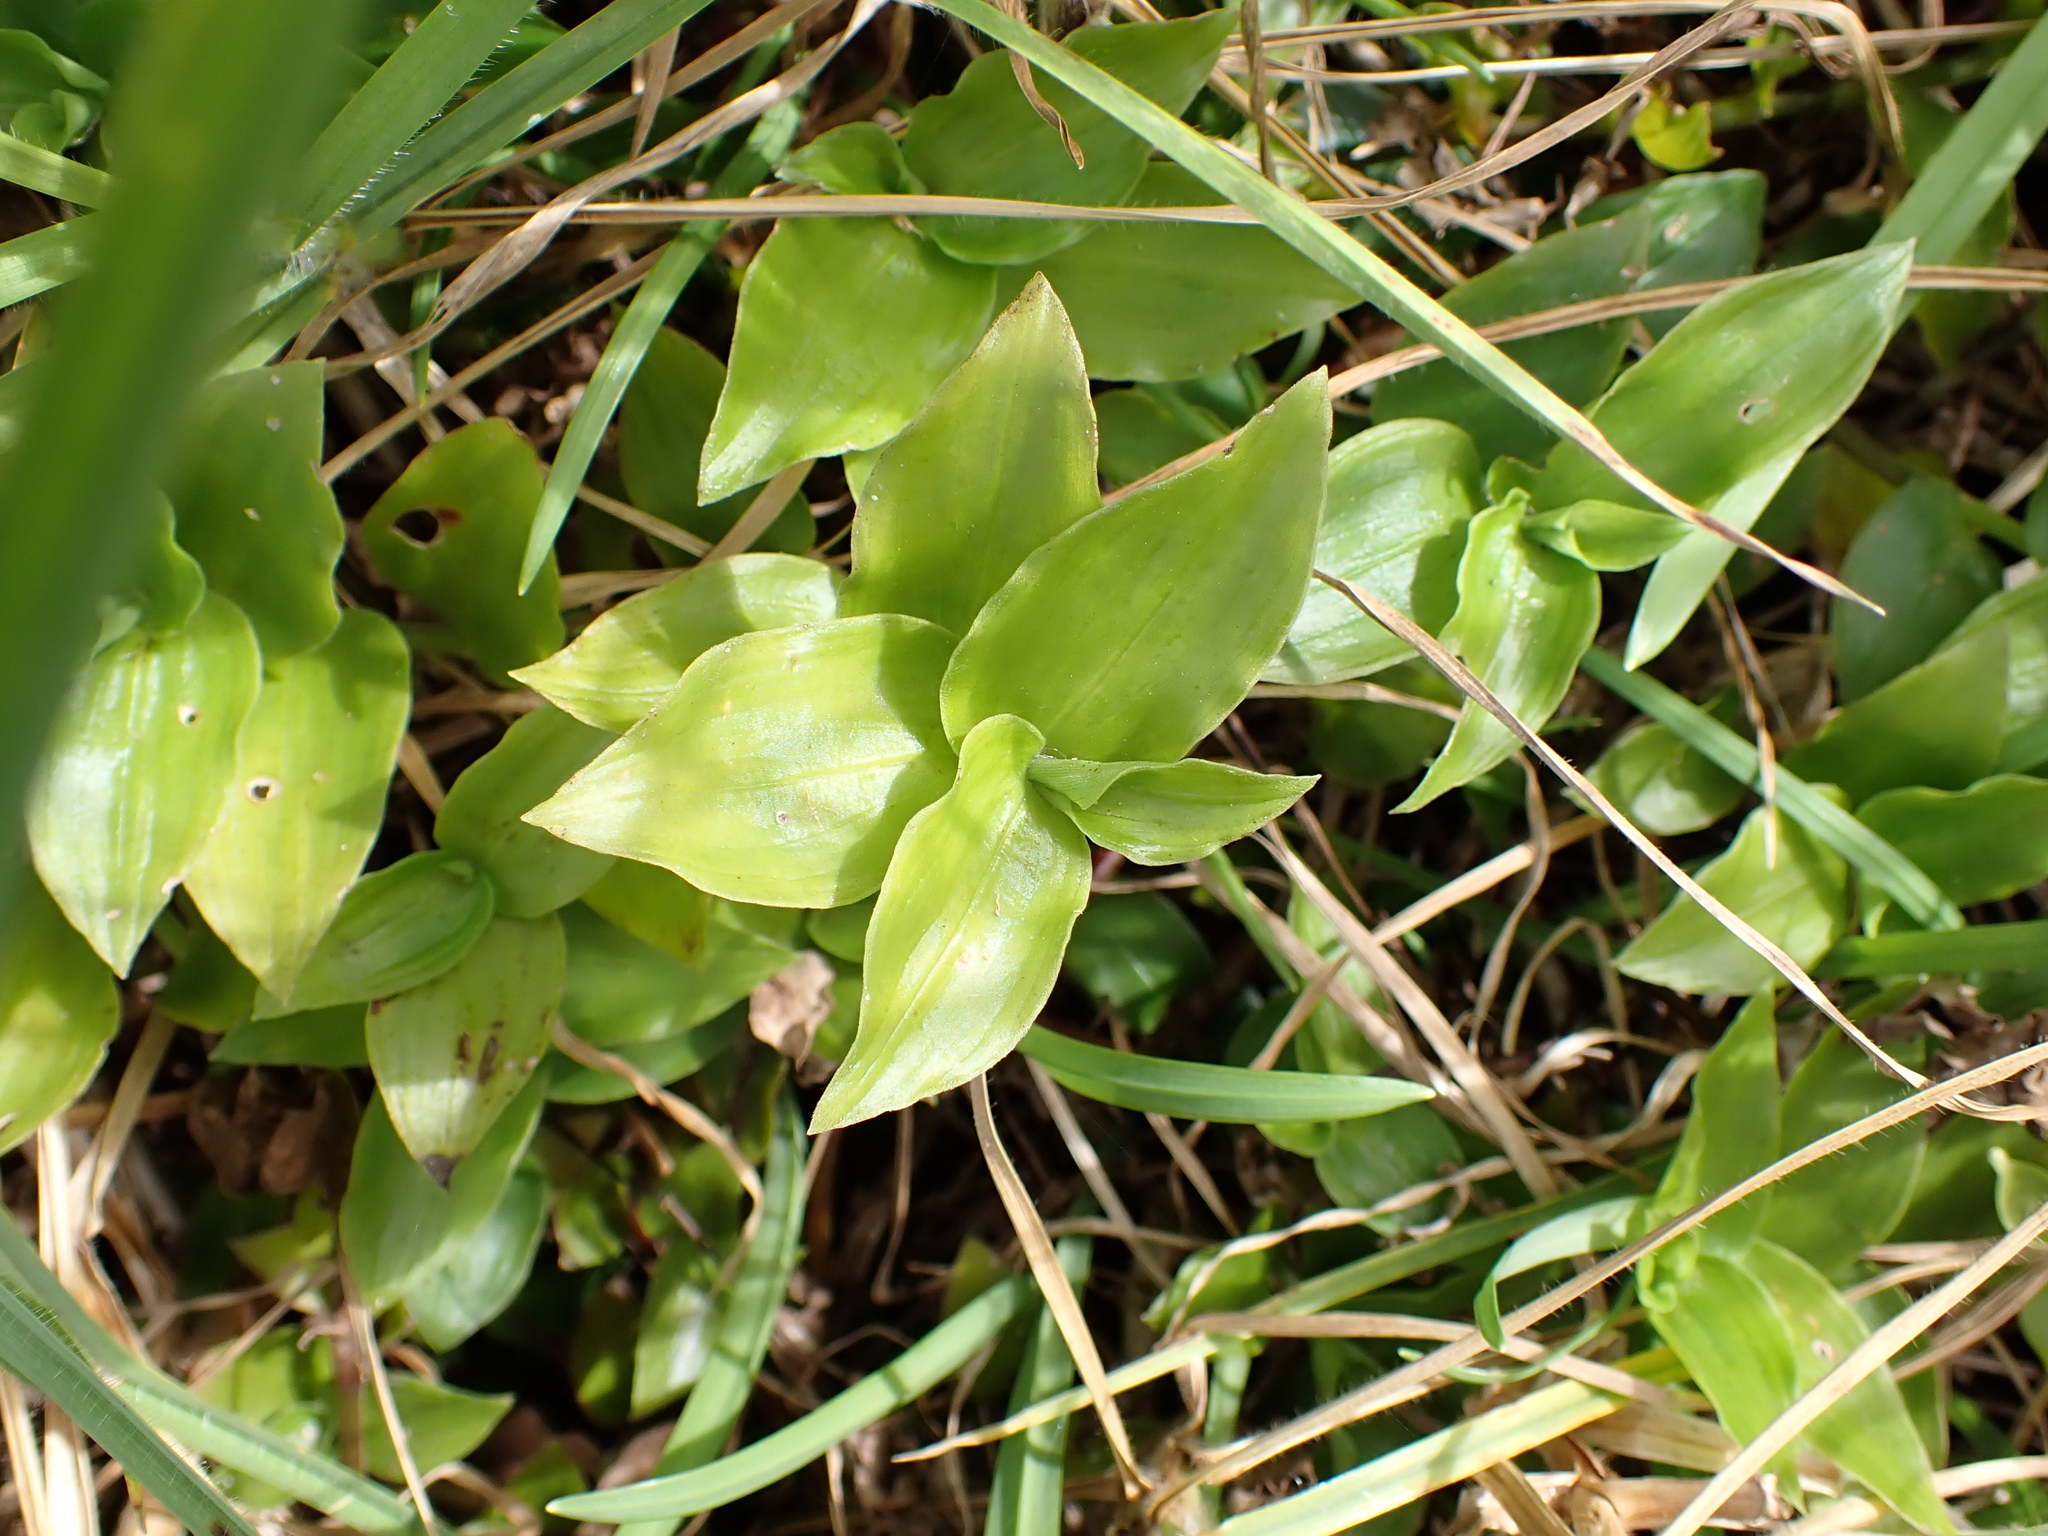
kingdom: Plantae
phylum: Tracheophyta
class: Liliopsida
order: Commelinales
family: Commelinaceae
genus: Tradescantia
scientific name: Tradescantia fluminensis
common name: Wandering-jew
